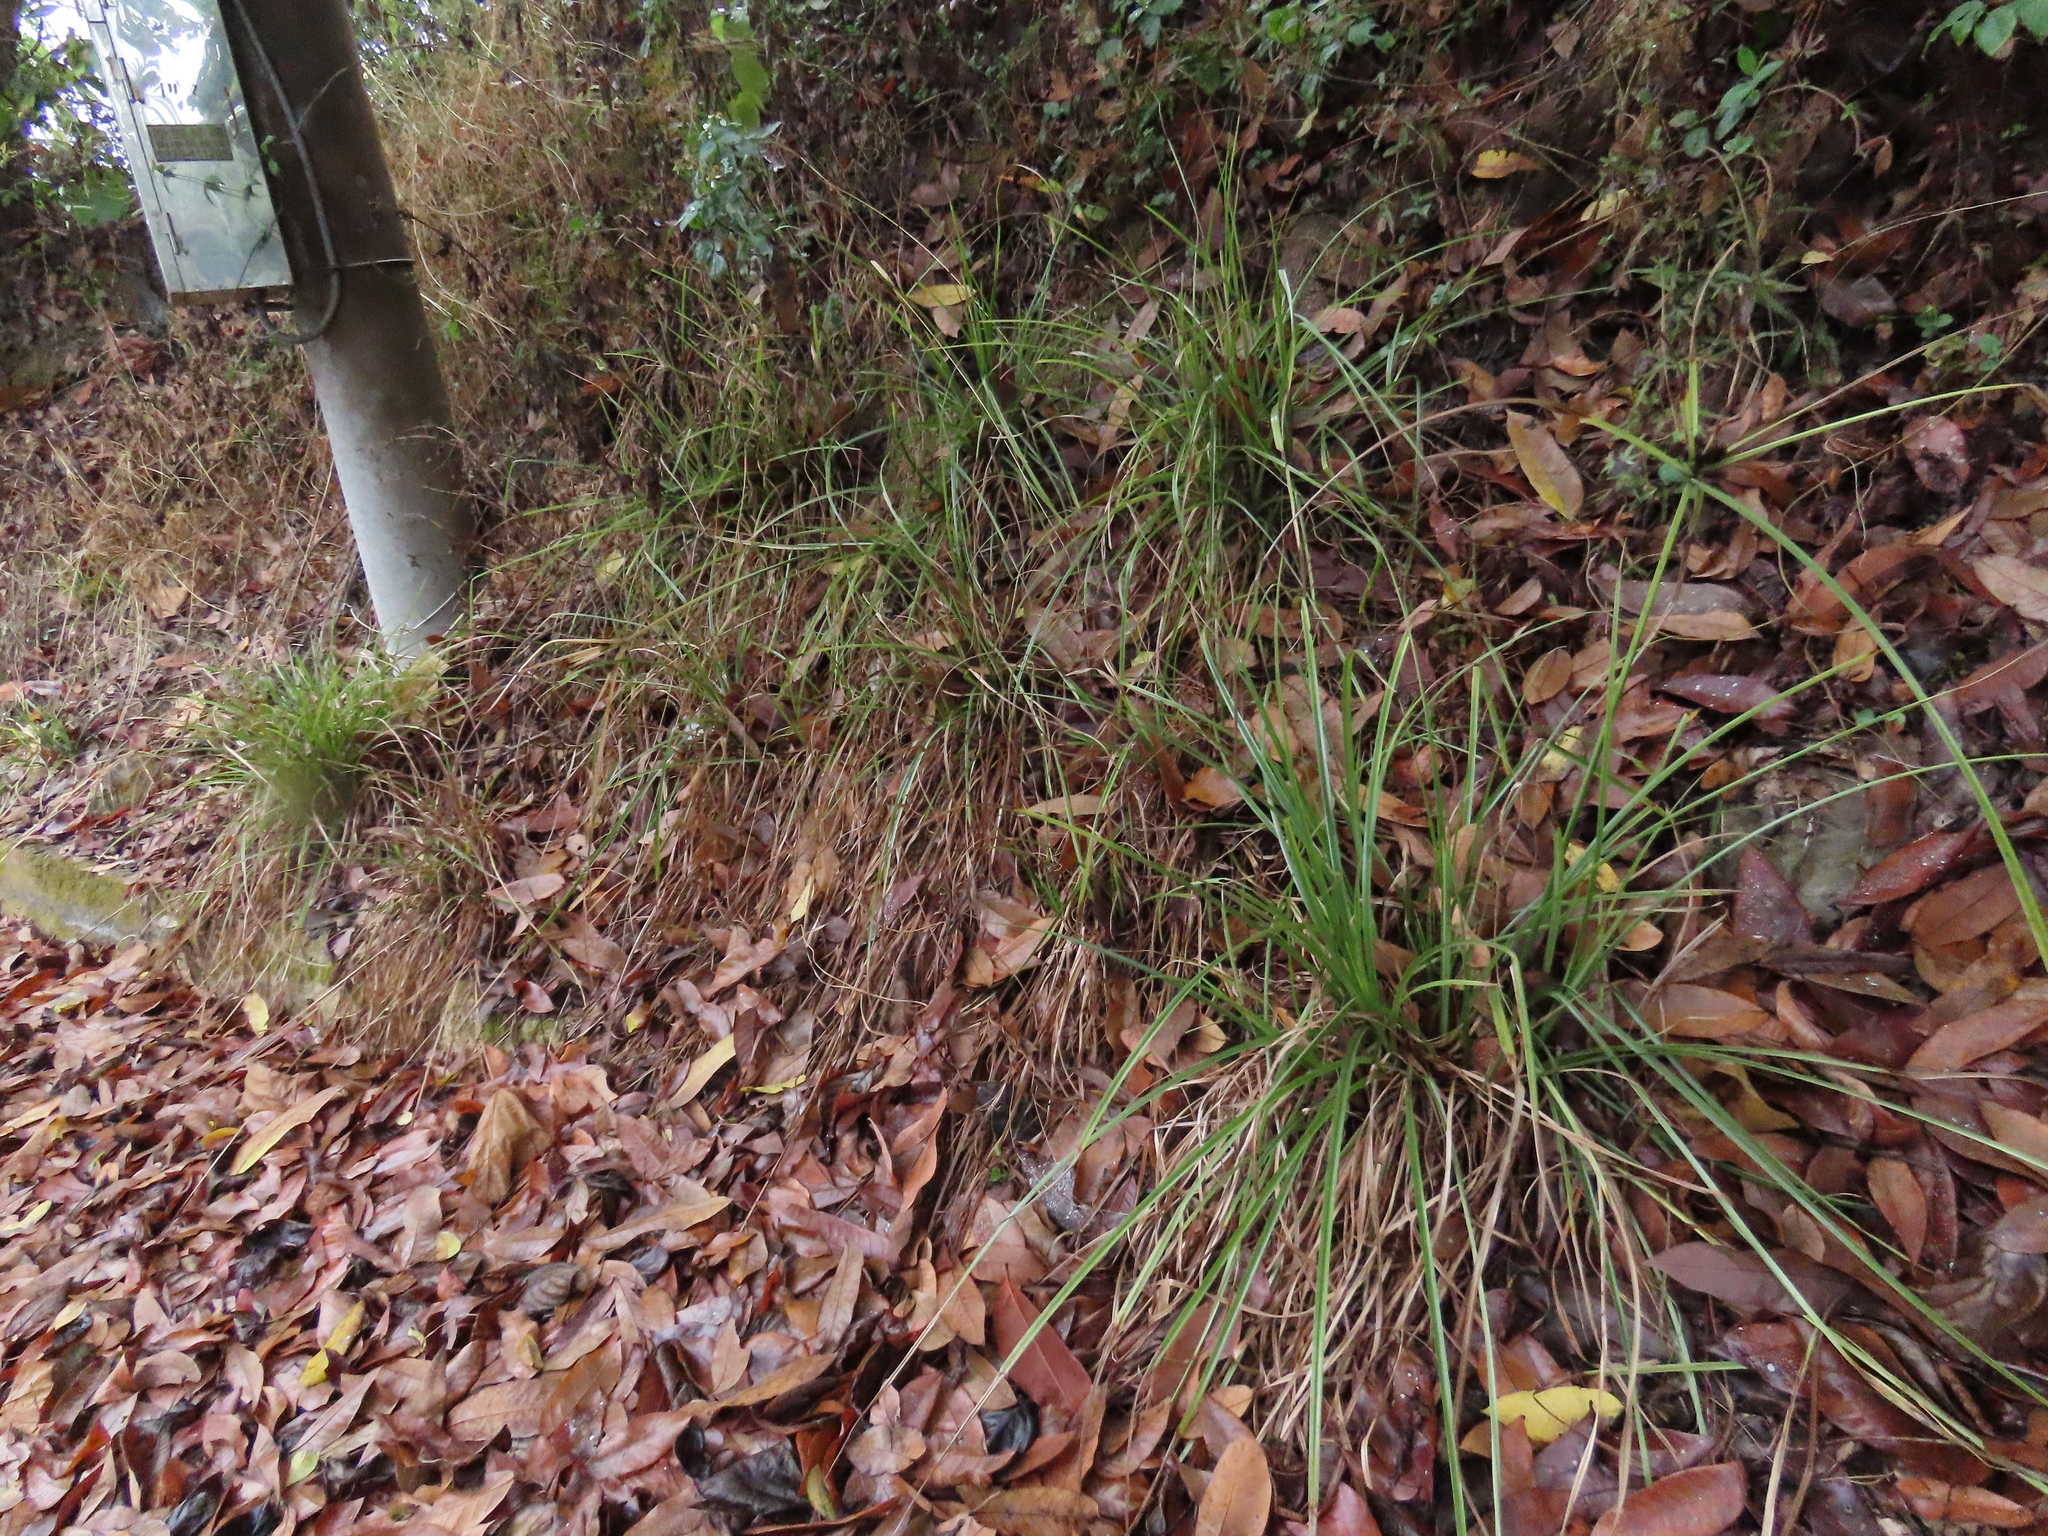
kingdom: Plantae
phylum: Tracheophyta
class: Liliopsida
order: Poales
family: Cyperaceae
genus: Cyperus
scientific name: Cyperus cyperoides
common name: Pacific island flat sedge
